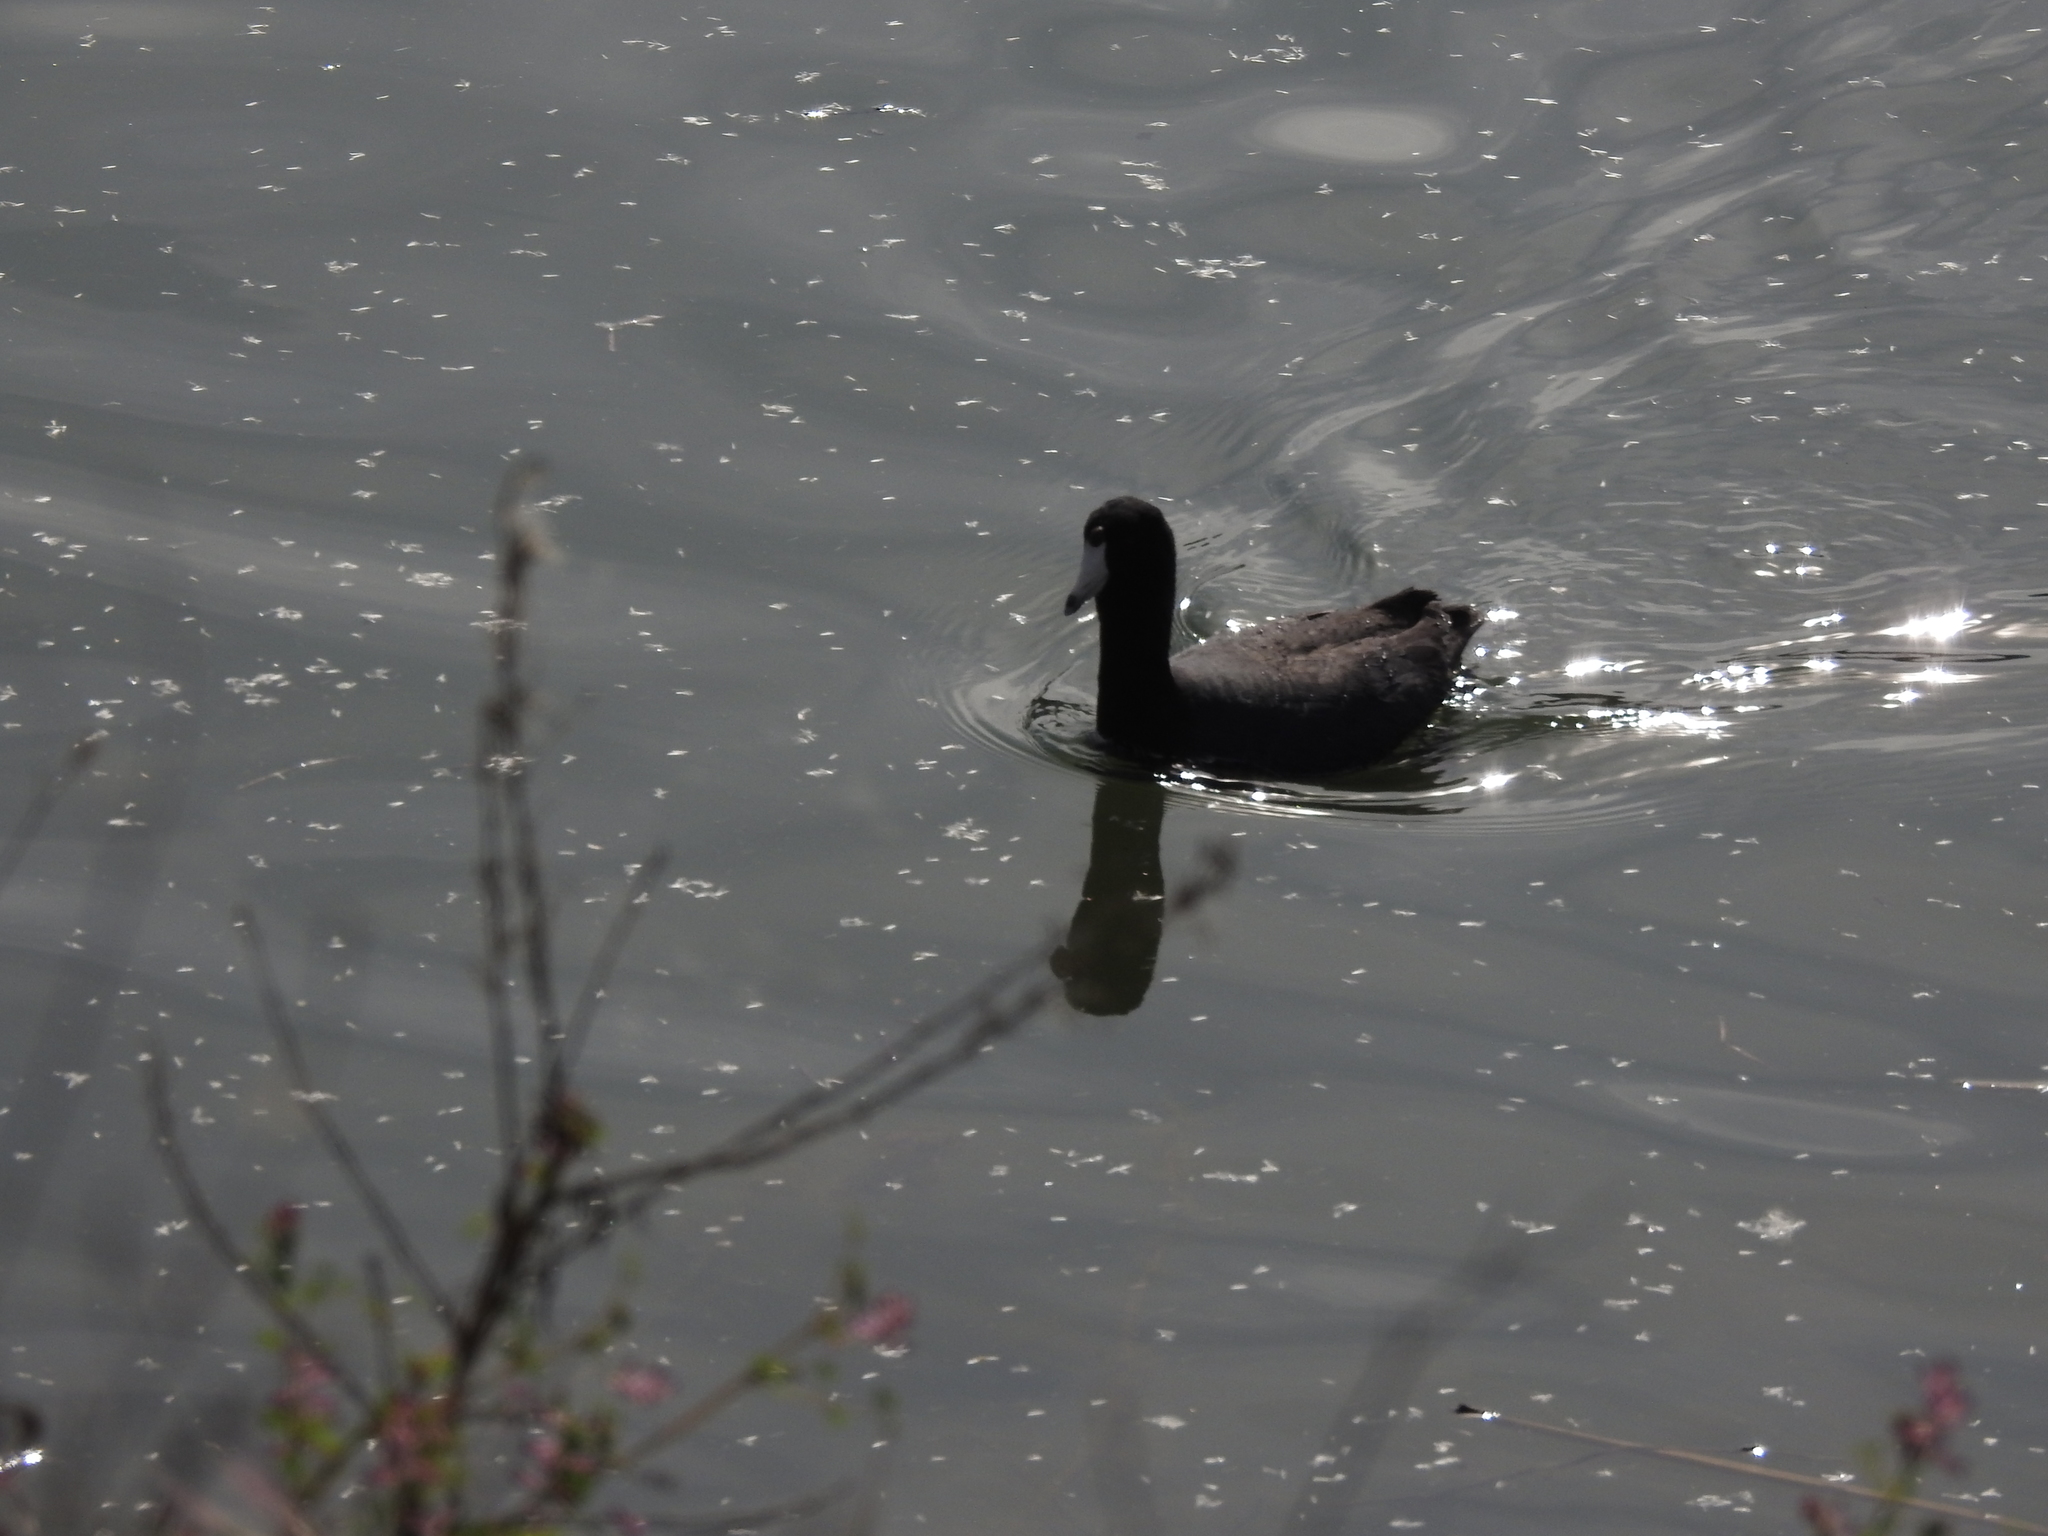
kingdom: Animalia
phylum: Chordata
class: Aves
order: Gruiformes
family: Rallidae
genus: Fulica
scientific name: Fulica americana
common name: American coot
